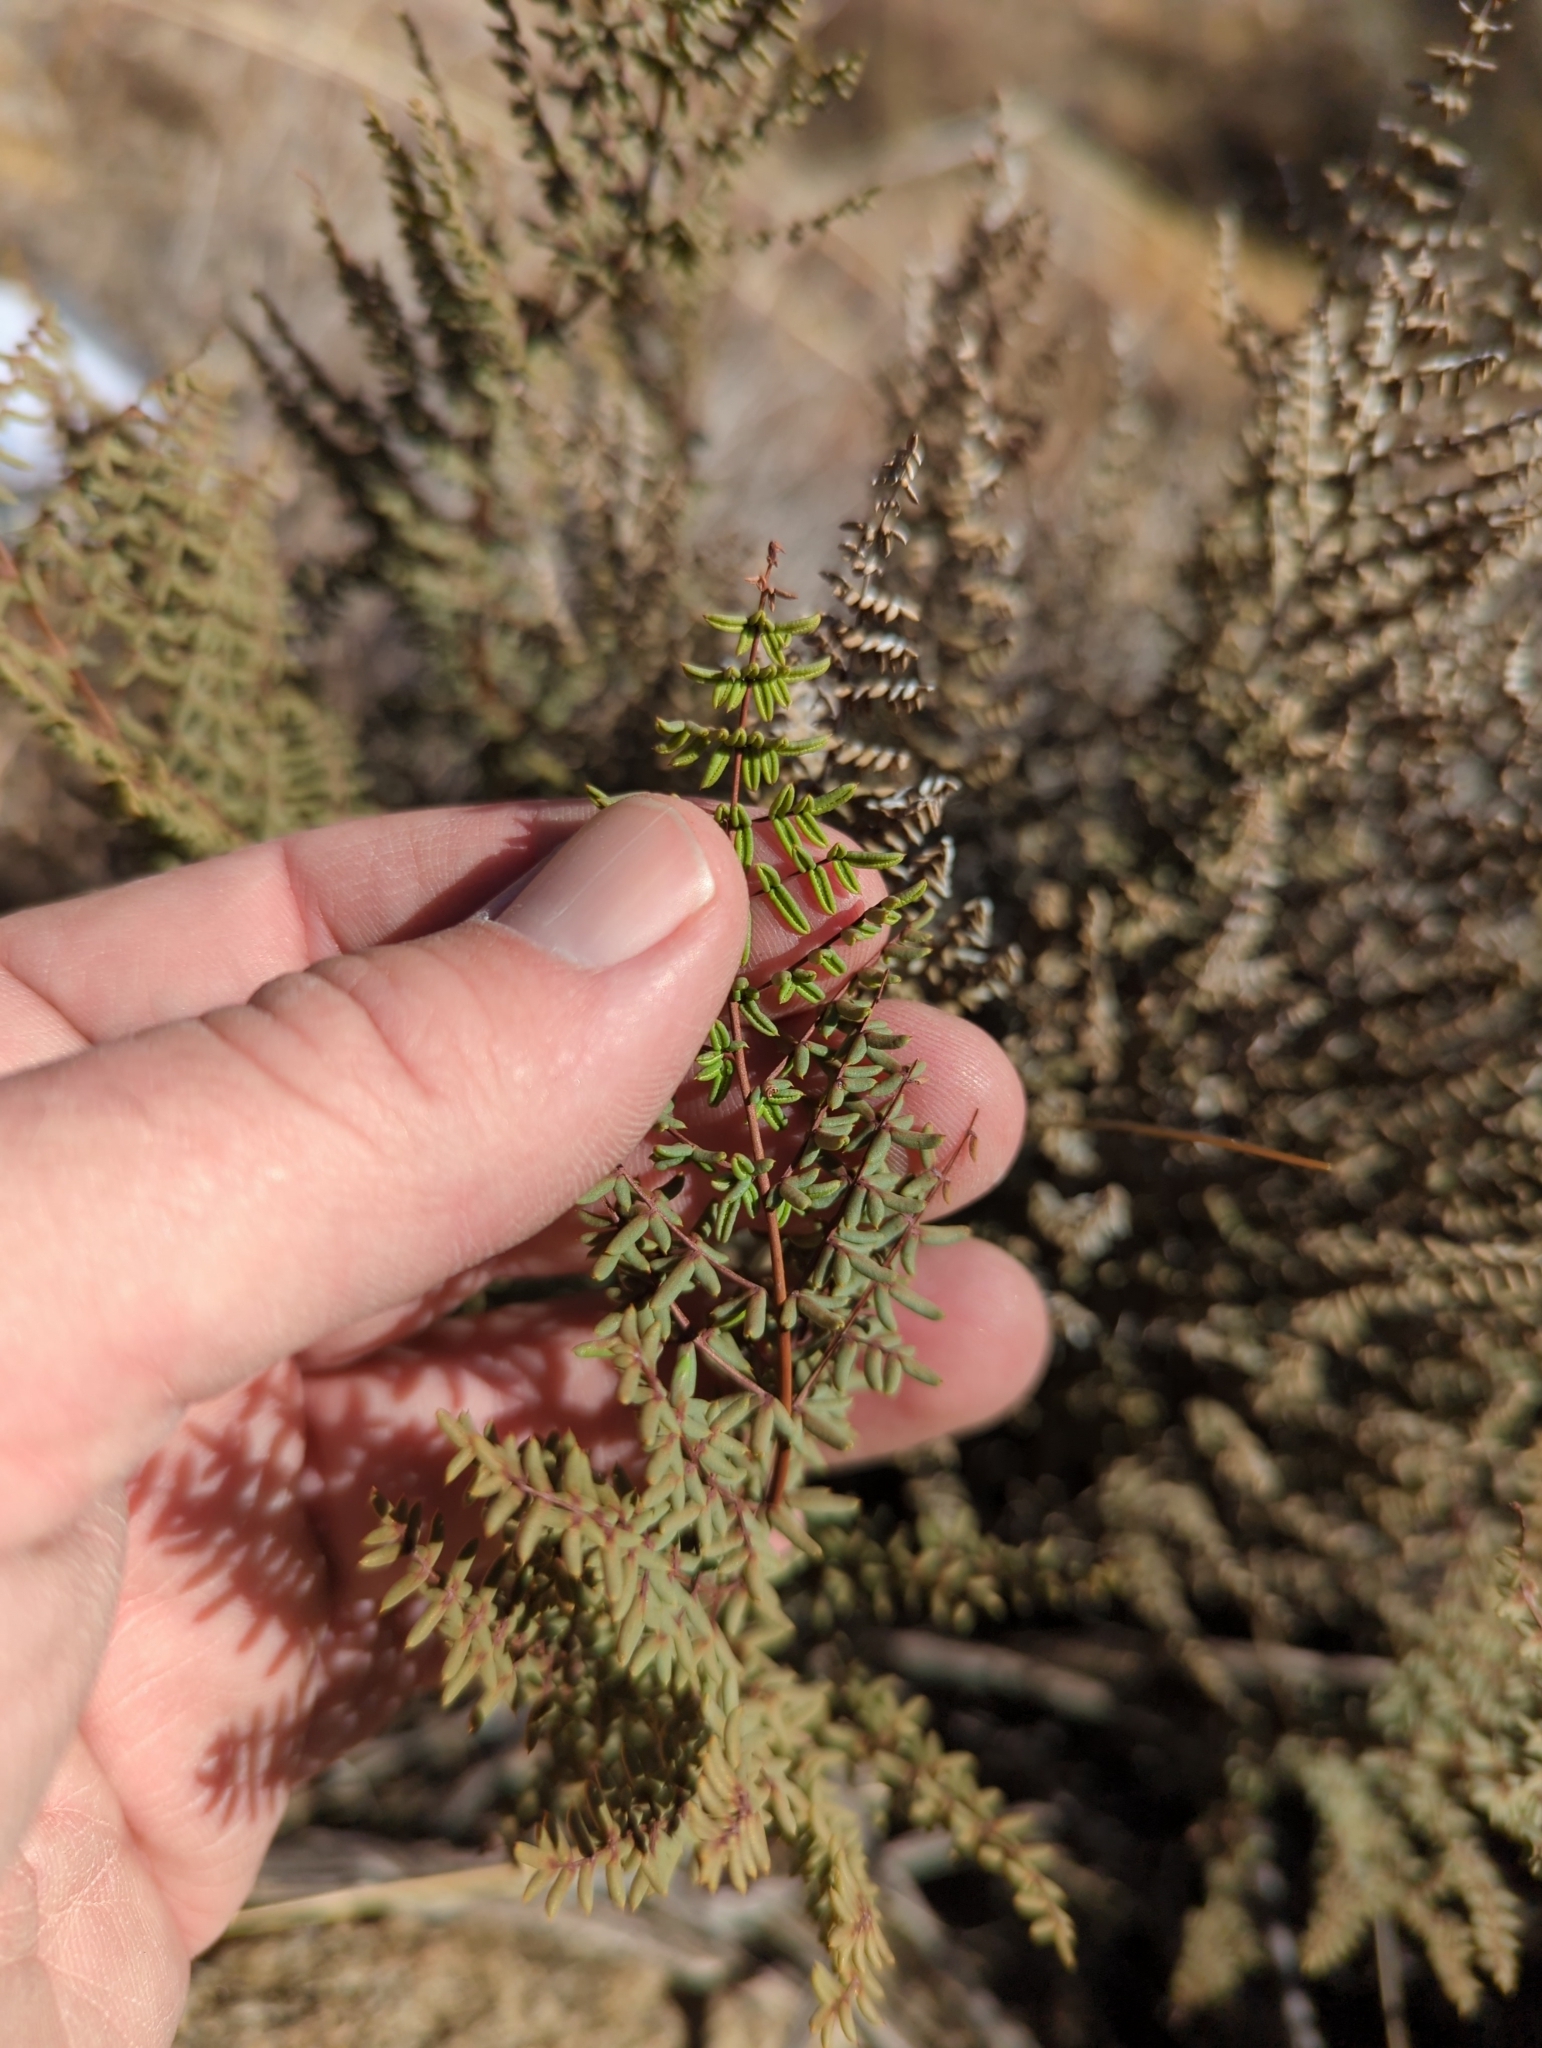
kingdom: Plantae
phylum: Tracheophyta
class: Polypodiopsida
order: Polypodiales
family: Pteridaceae
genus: Pellaea
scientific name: Pellaea mucronata
